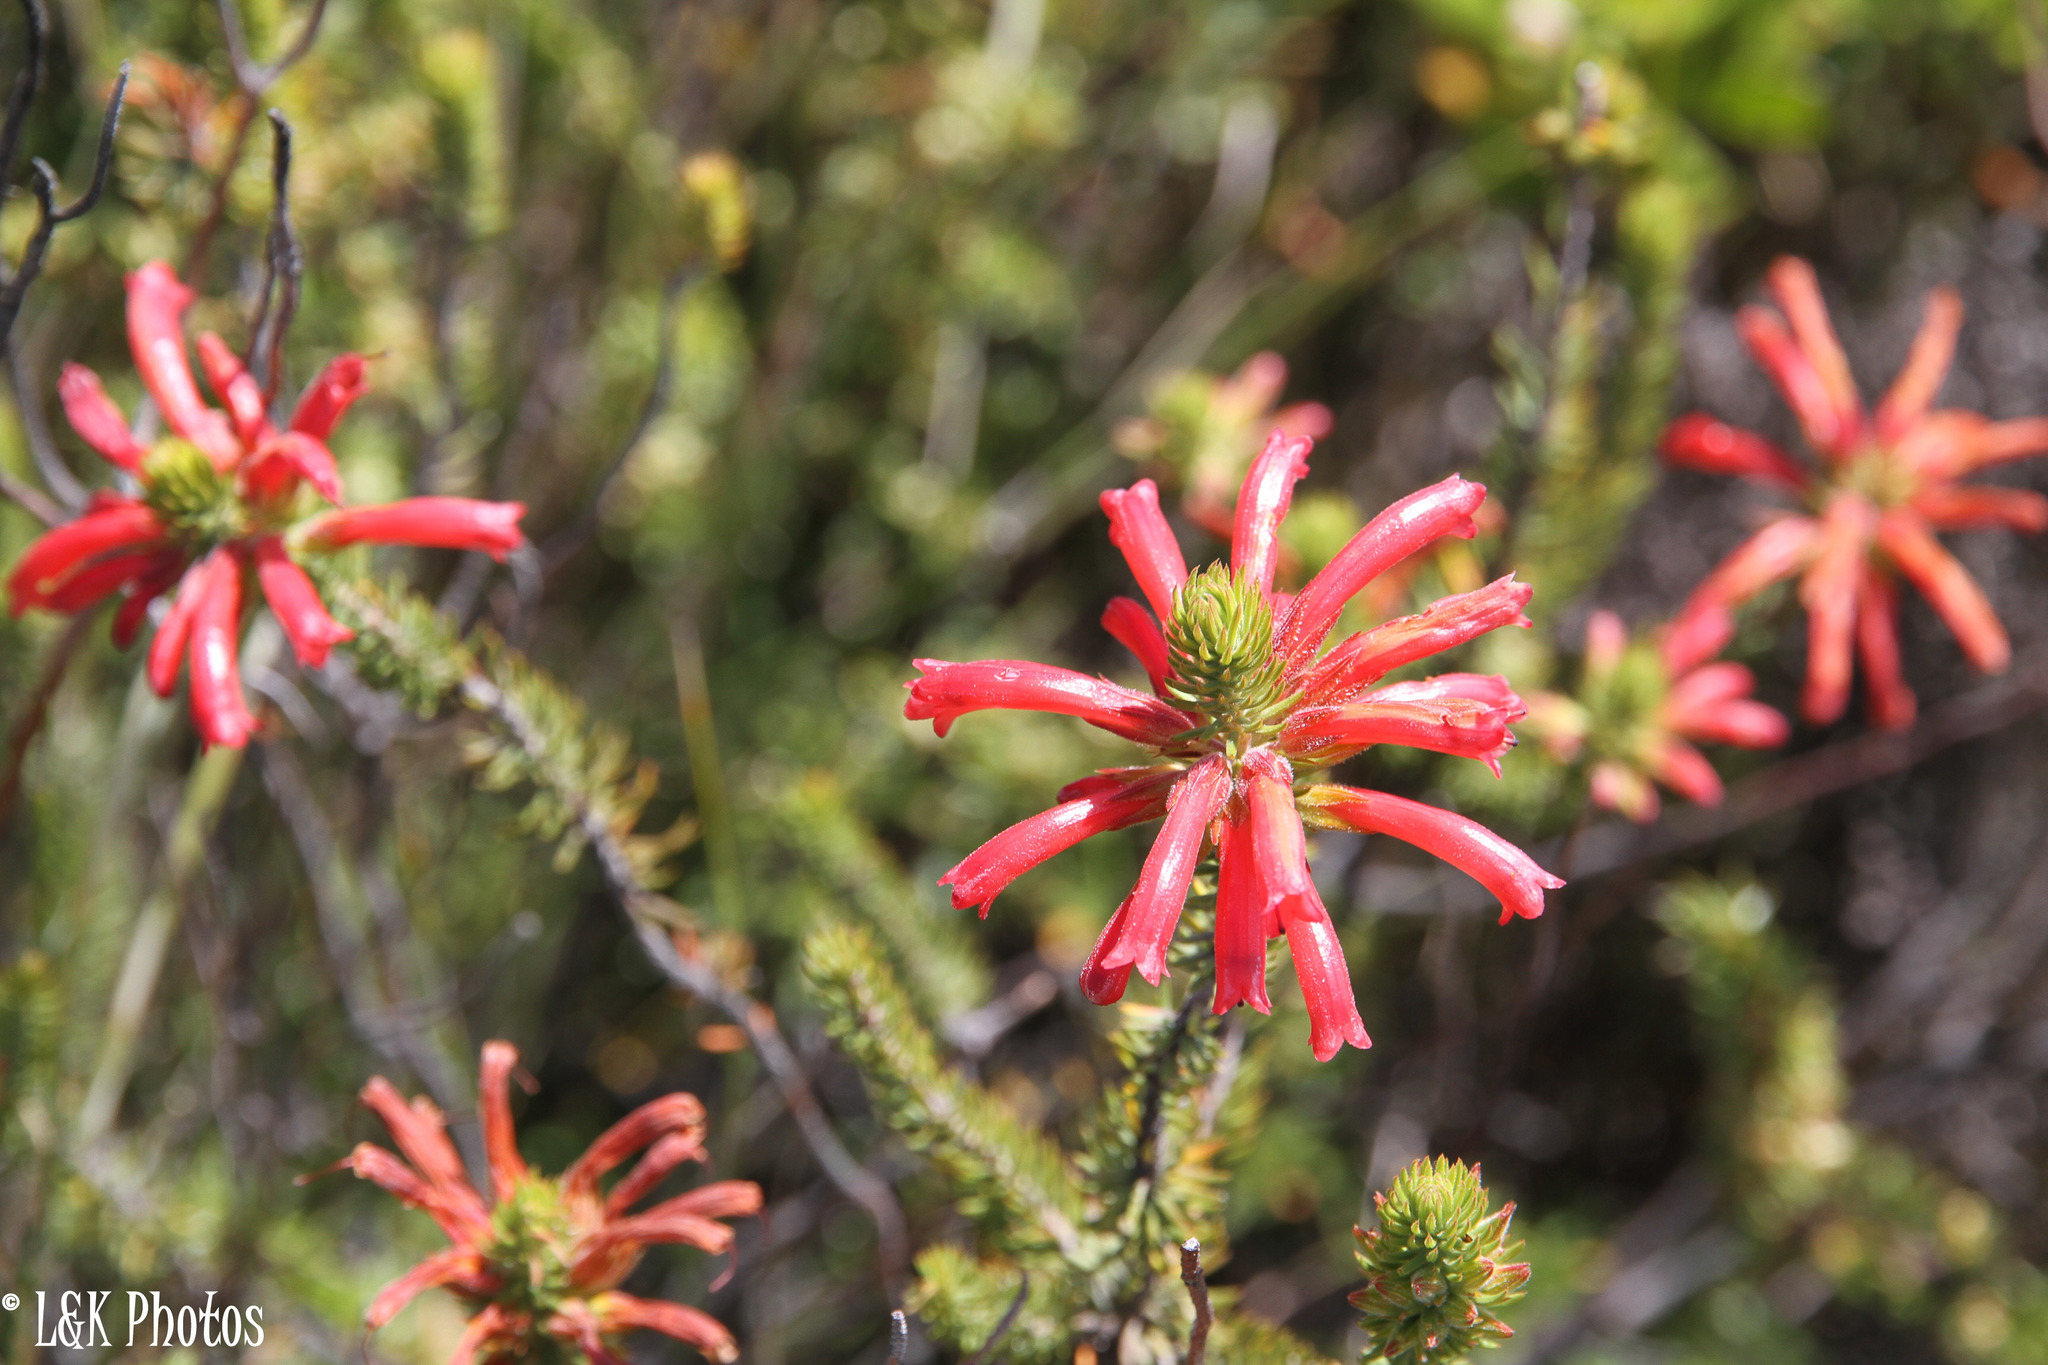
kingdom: Plantae
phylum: Tracheophyta
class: Magnoliopsida
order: Ericales
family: Ericaceae
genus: Erica
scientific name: Erica abietina
